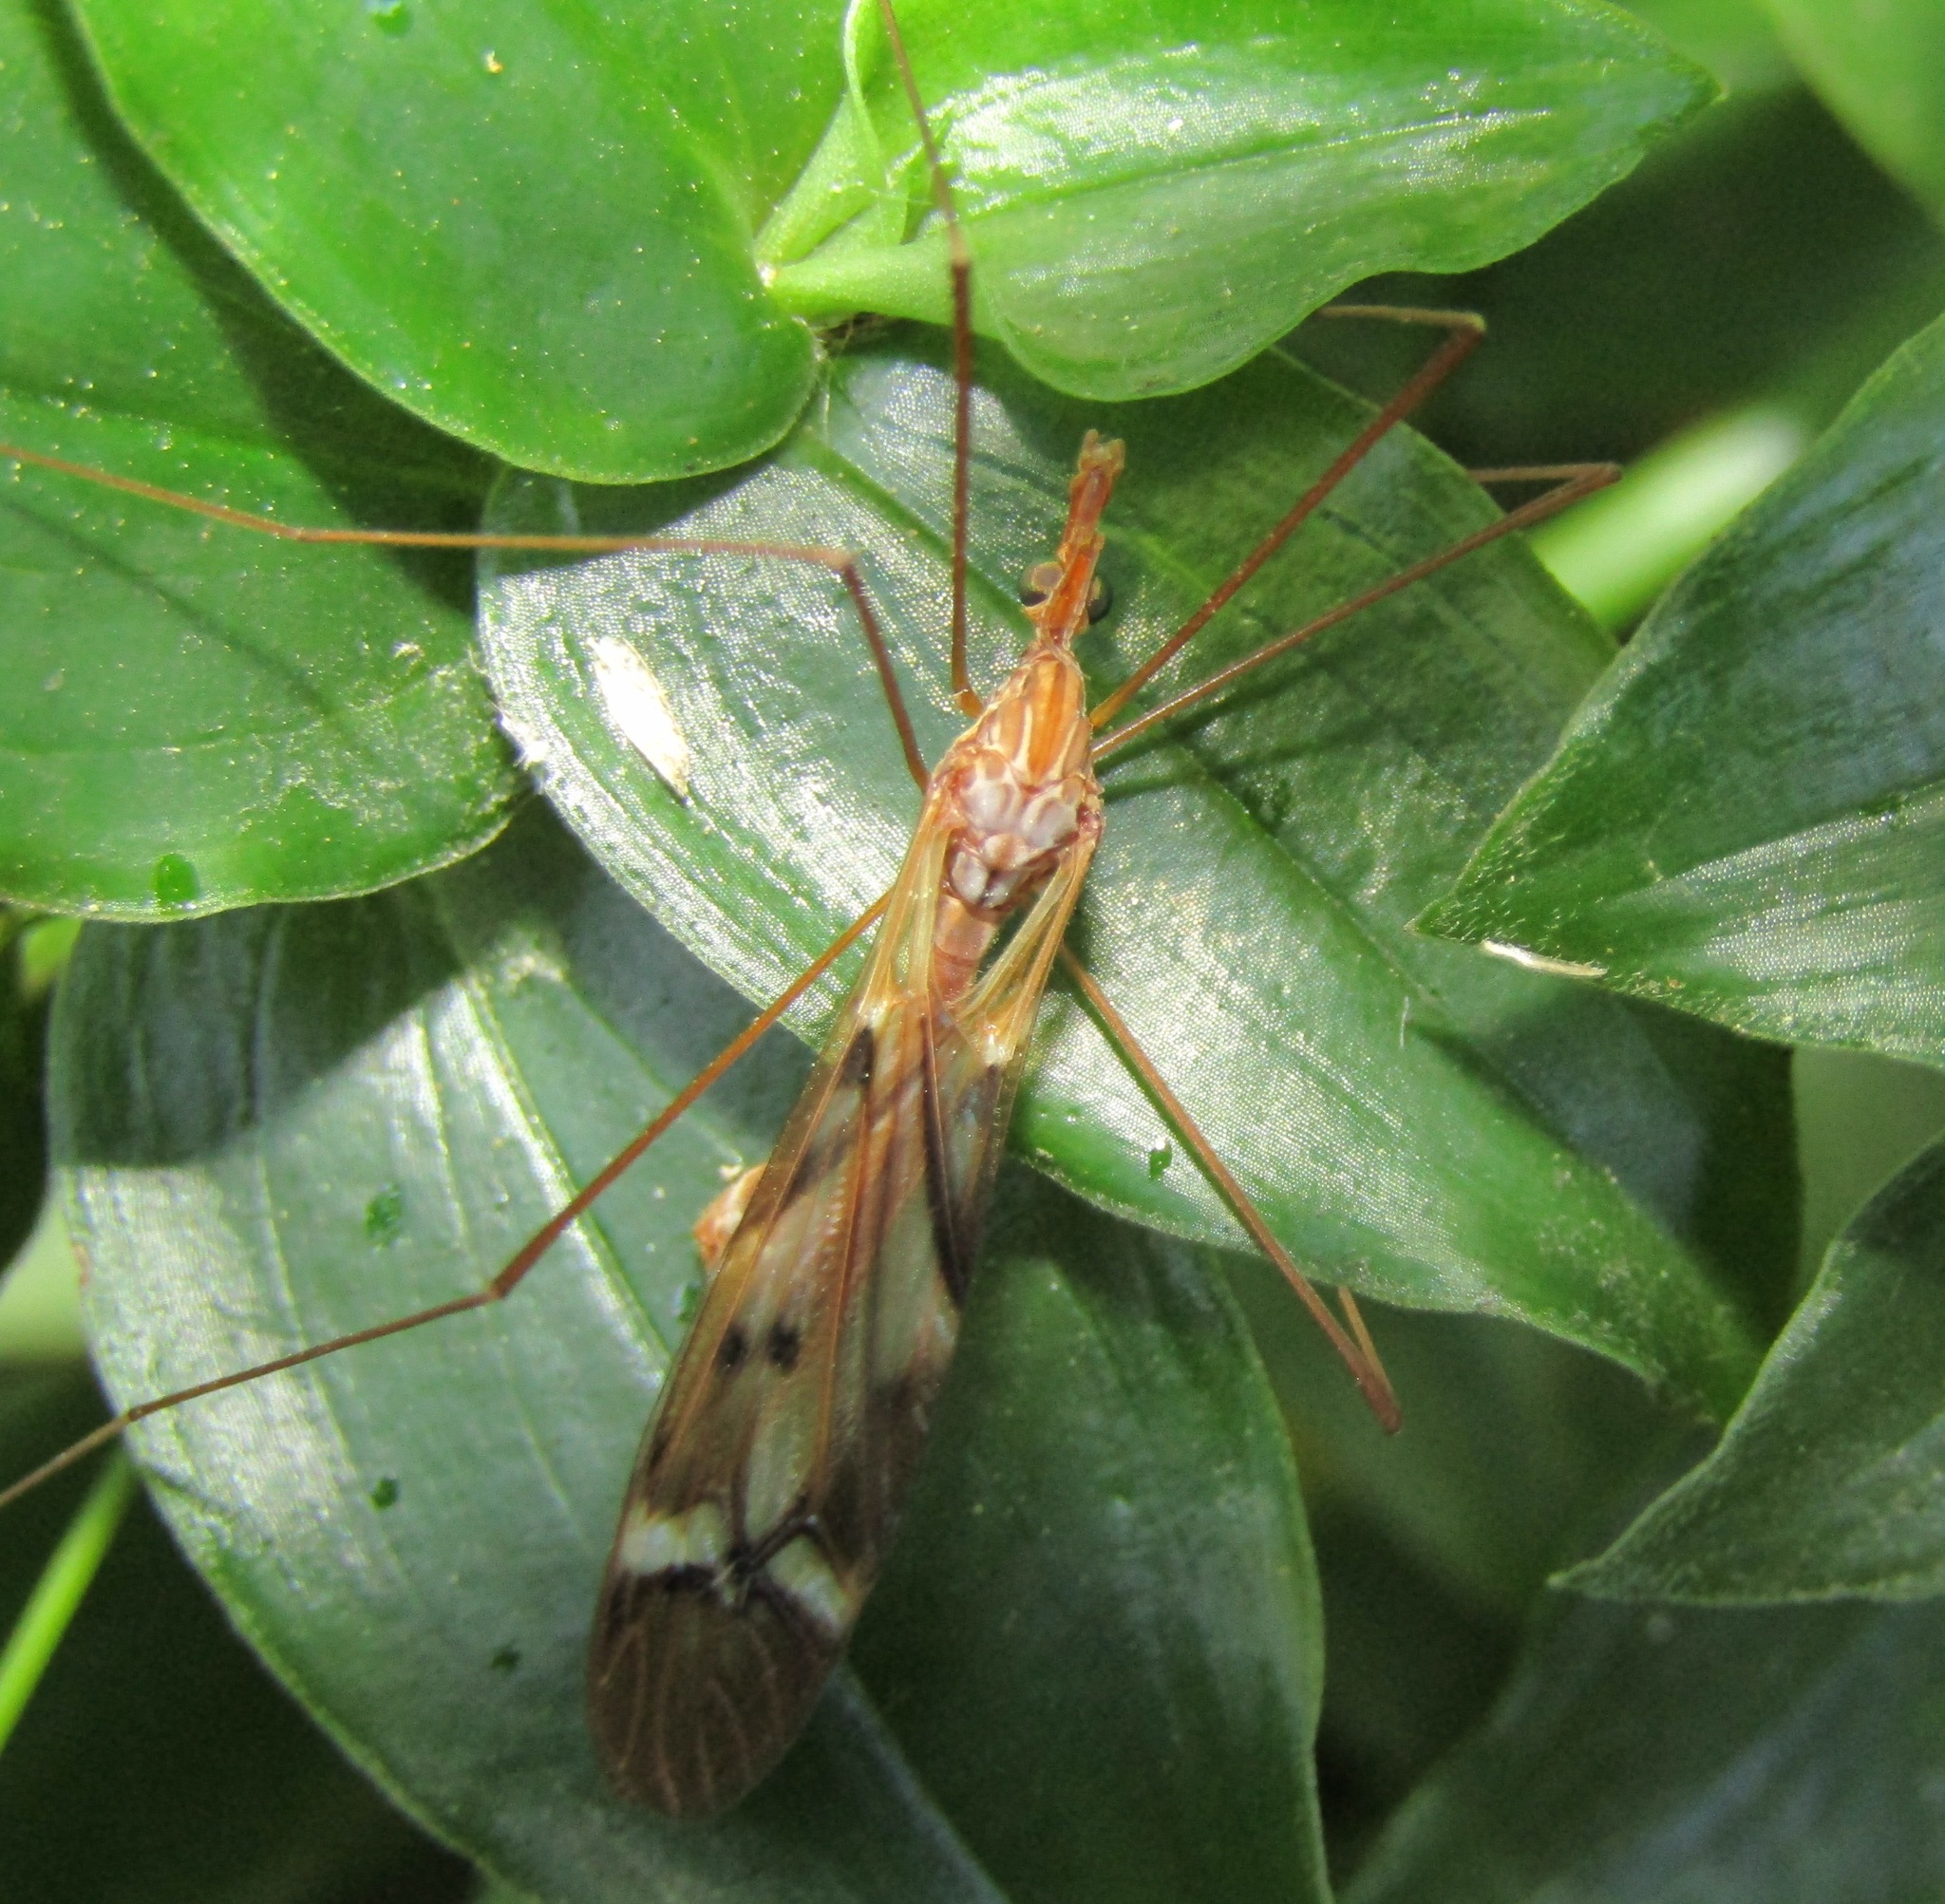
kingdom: Animalia
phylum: Arthropoda
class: Insecta
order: Diptera
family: Tipulidae
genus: Zelandotipula
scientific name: Zelandotipula fulva
